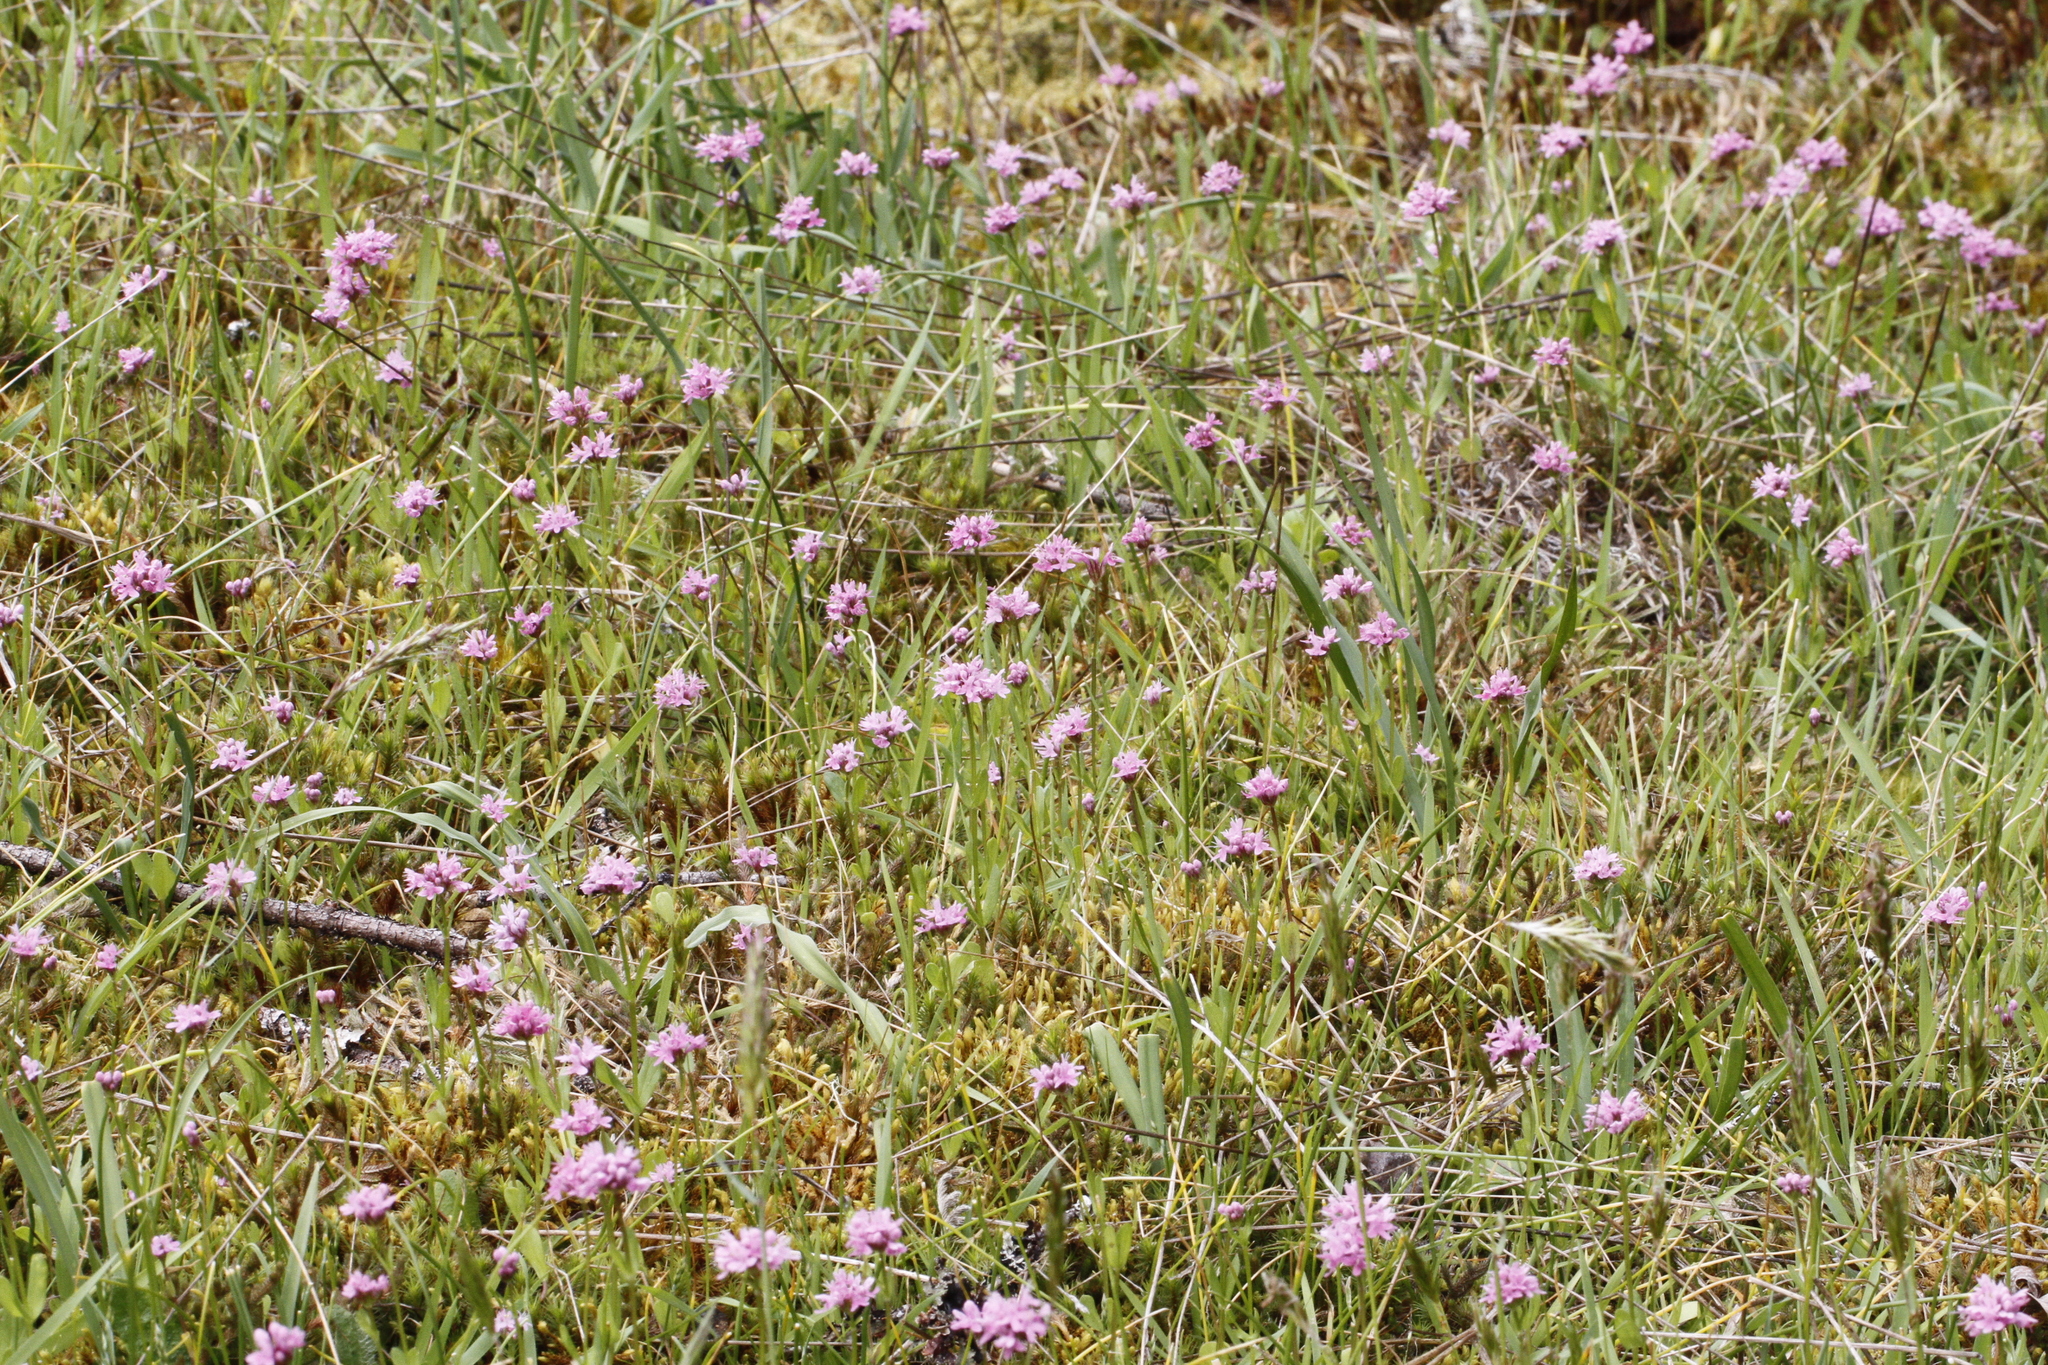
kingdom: Plantae
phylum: Tracheophyta
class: Magnoliopsida
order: Dipsacales
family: Caprifoliaceae
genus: Plectritis
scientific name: Plectritis congesta
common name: Pink plectritis
